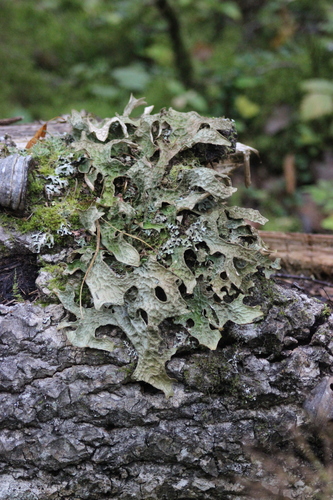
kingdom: Fungi
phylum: Ascomycota
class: Lecanoromycetes
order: Peltigerales
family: Lobariaceae
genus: Lobaria
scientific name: Lobaria pulmonaria
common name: Lungwort
